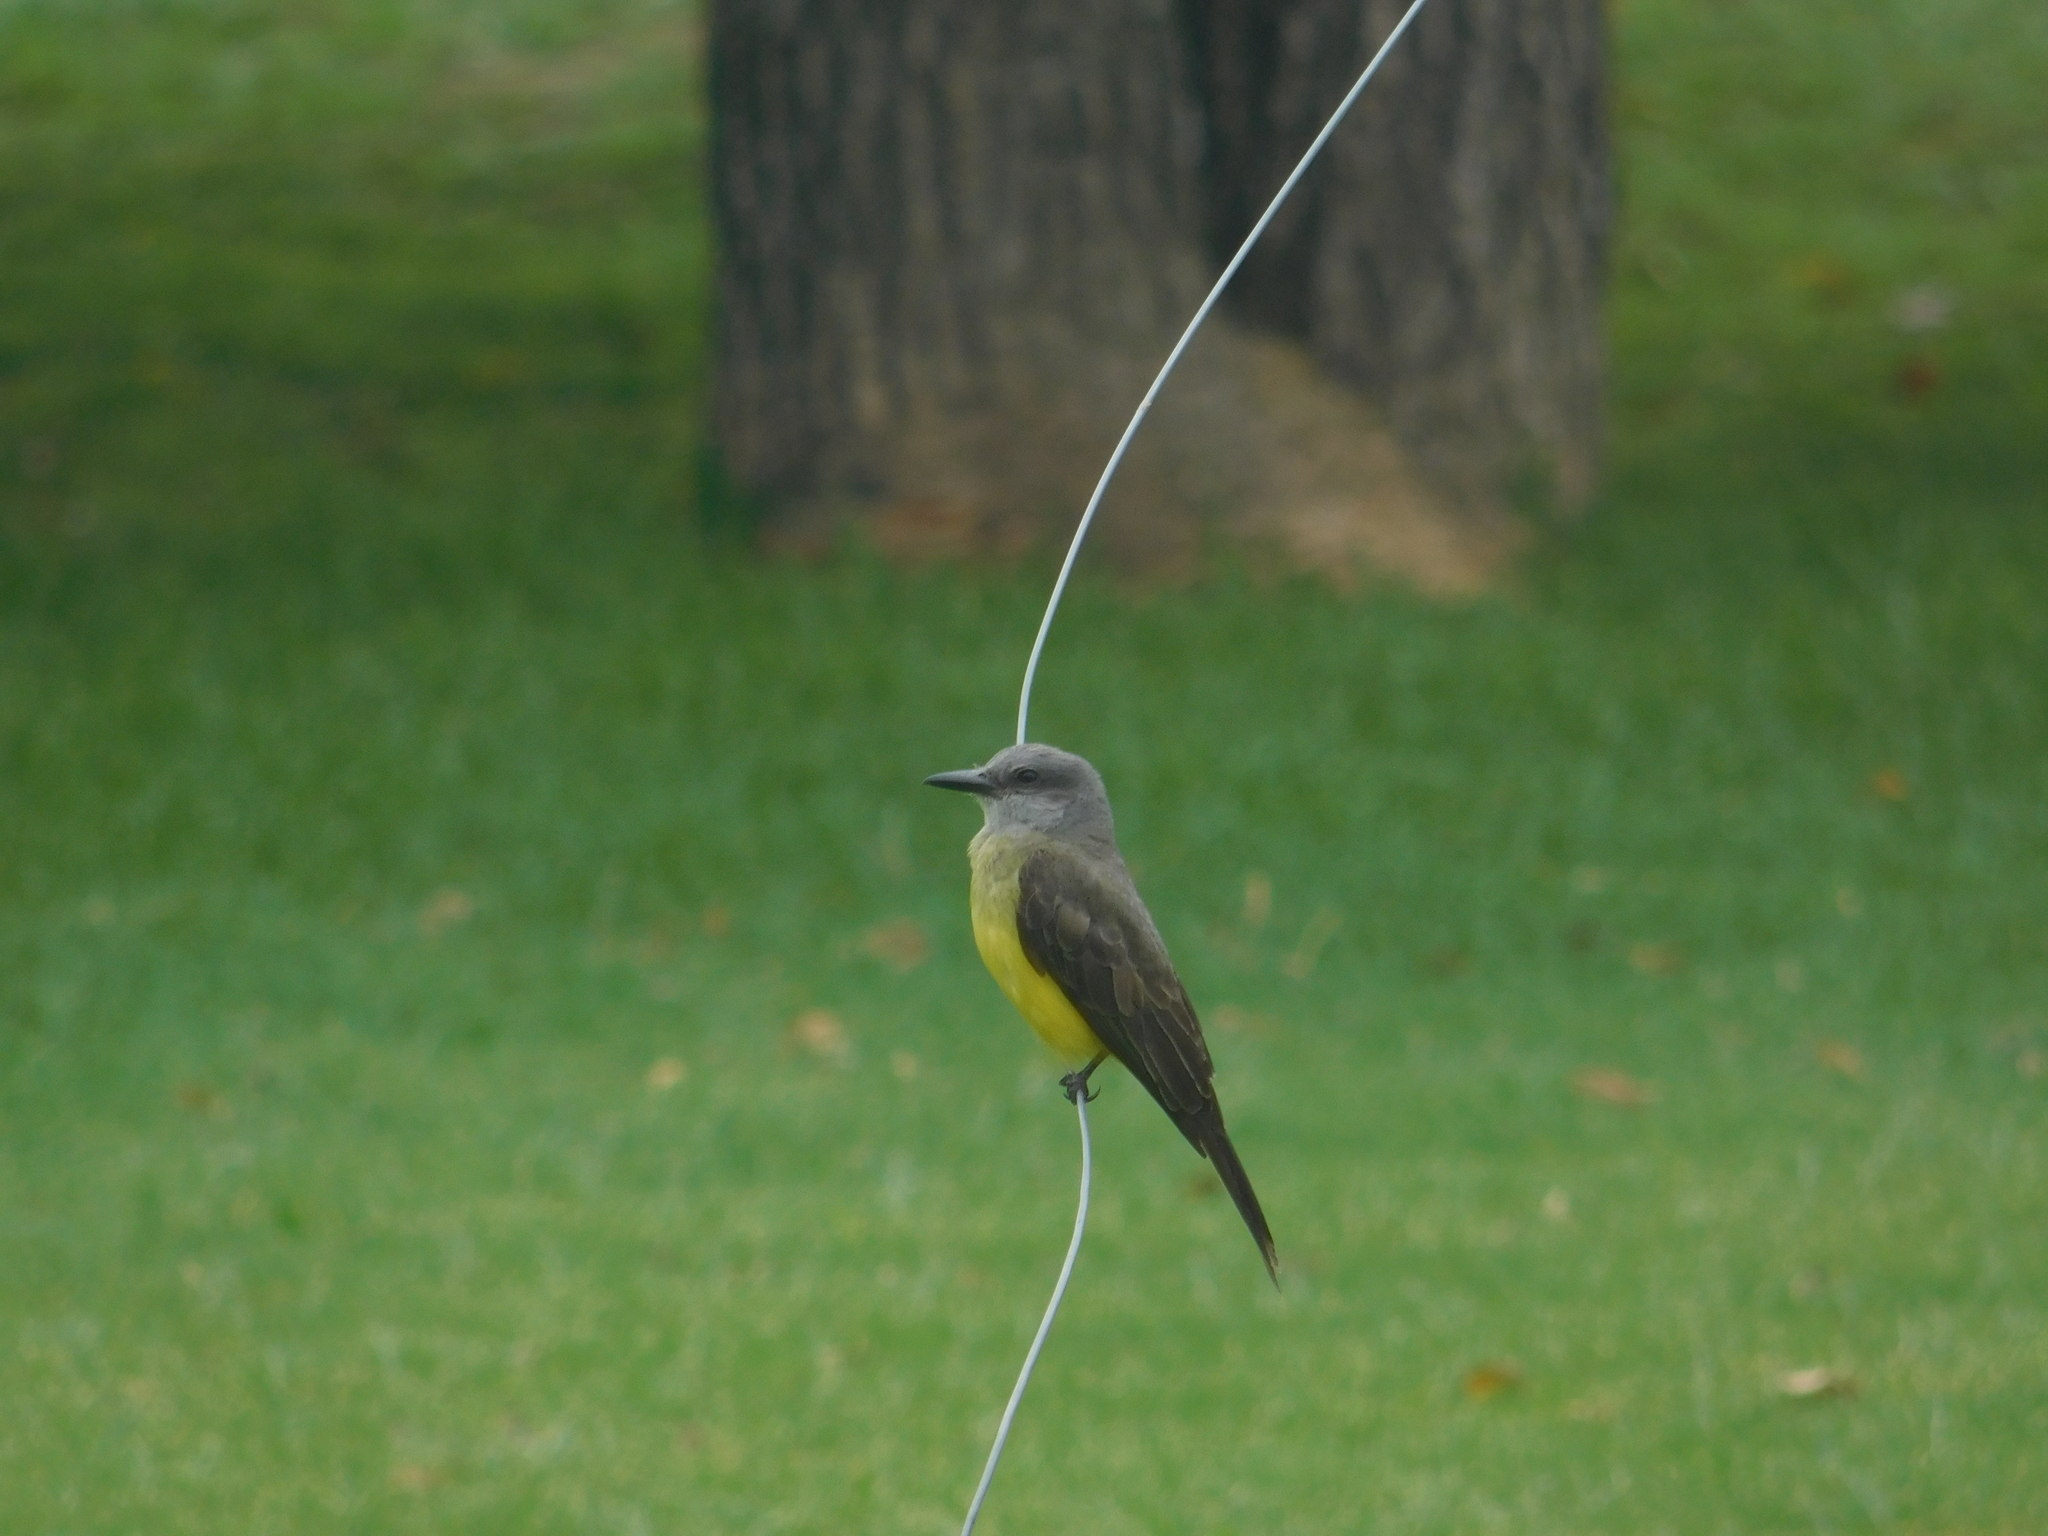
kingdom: Animalia
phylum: Chordata
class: Aves
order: Passeriformes
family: Tyrannidae
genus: Tyrannus
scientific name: Tyrannus melancholicus
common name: Tropical kingbird
